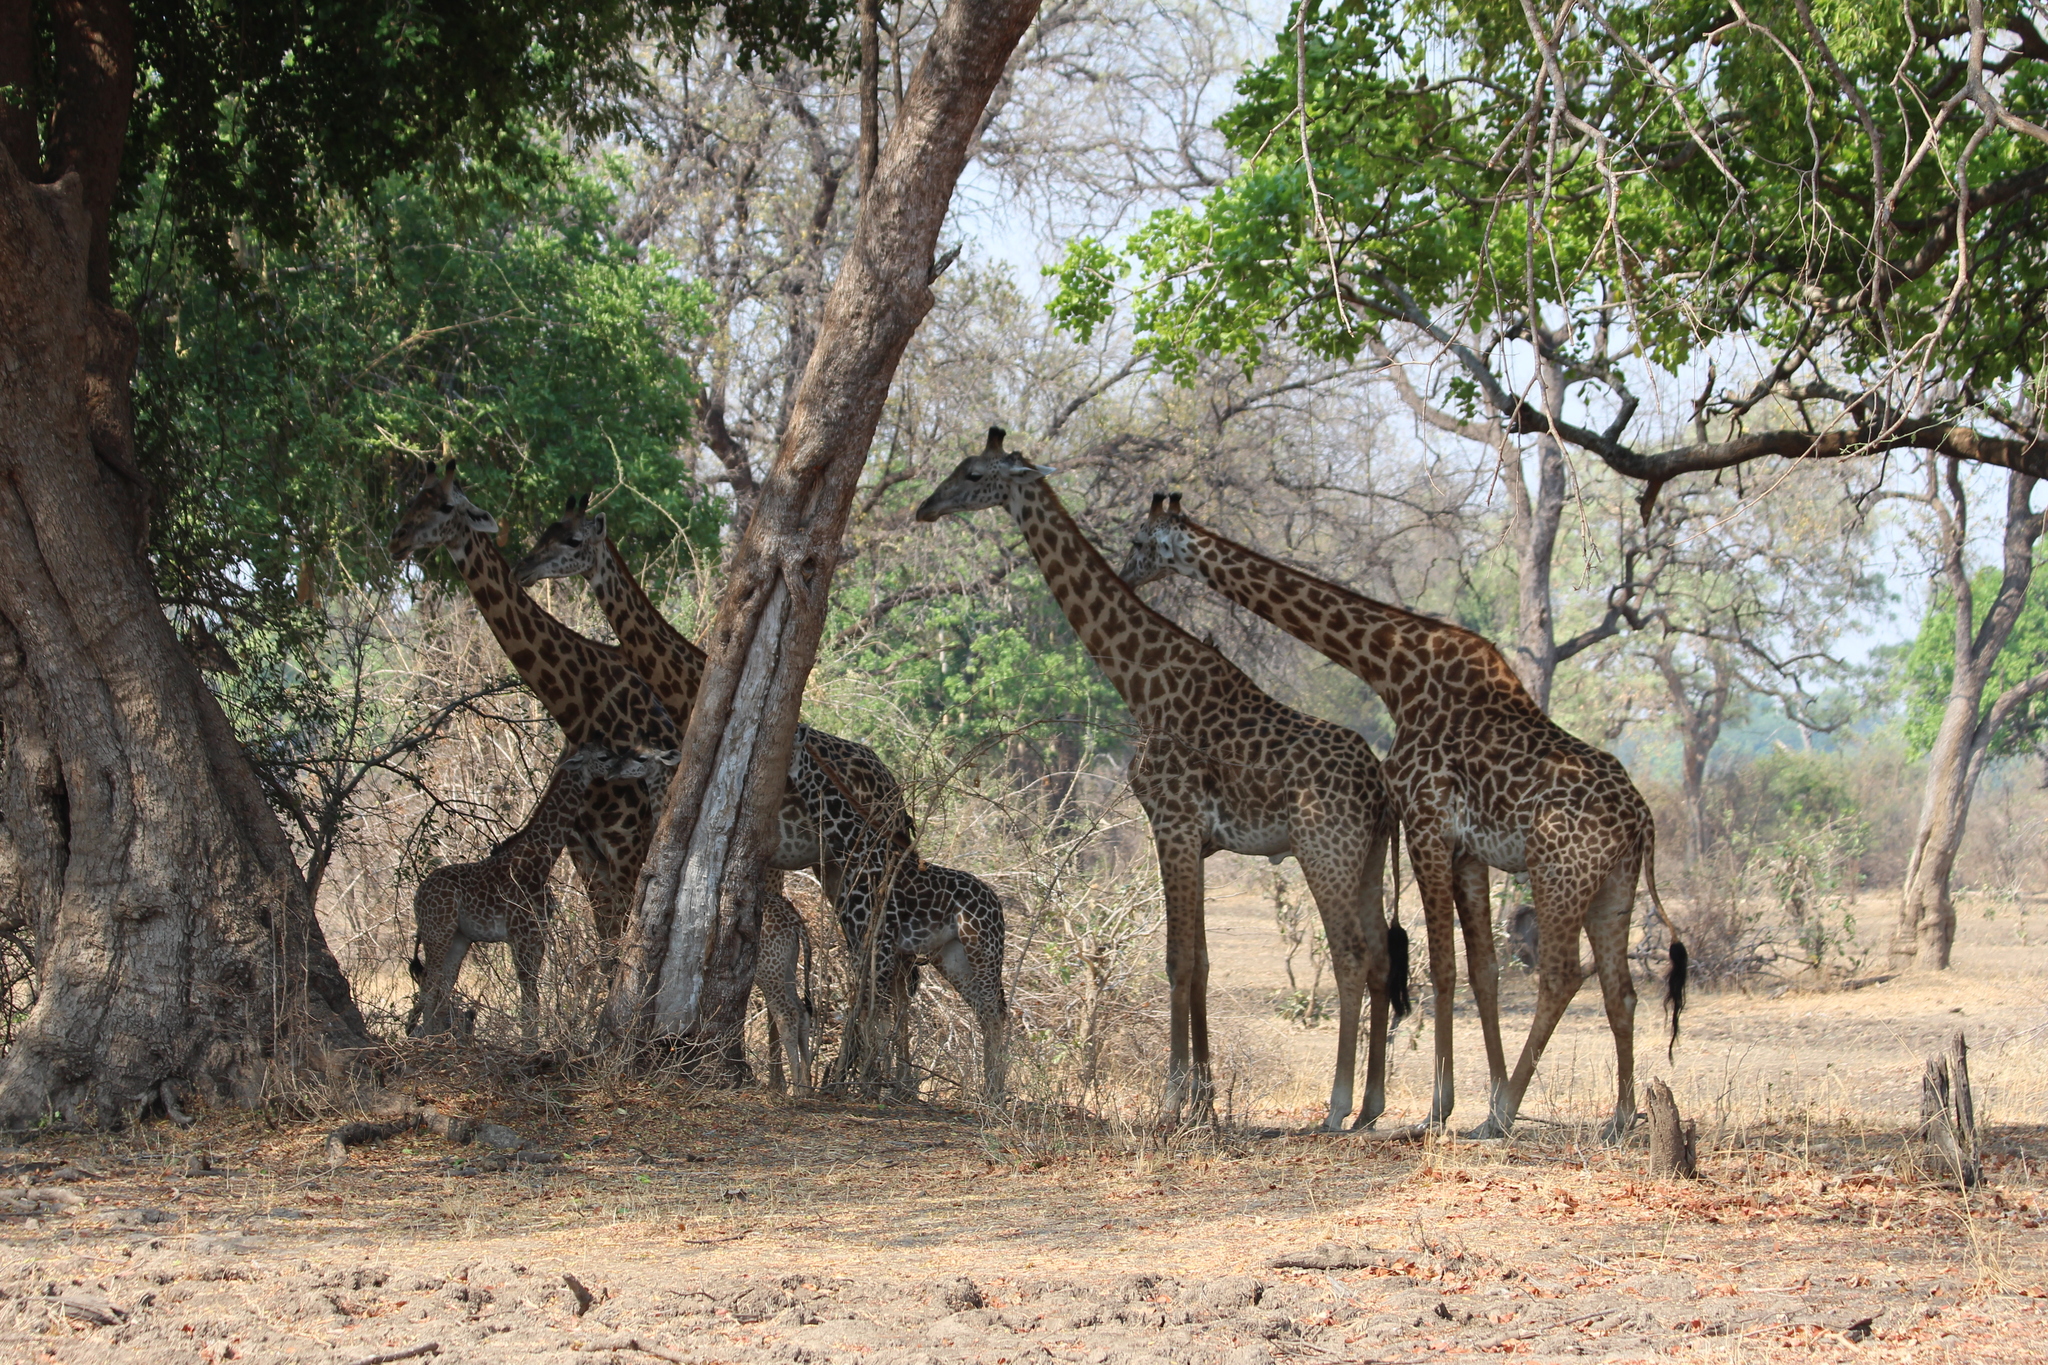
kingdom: Animalia
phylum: Chordata
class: Mammalia
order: Artiodactyla
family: Giraffidae
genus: Giraffa
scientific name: Giraffa tippelskirchi
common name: Masai giraffe
